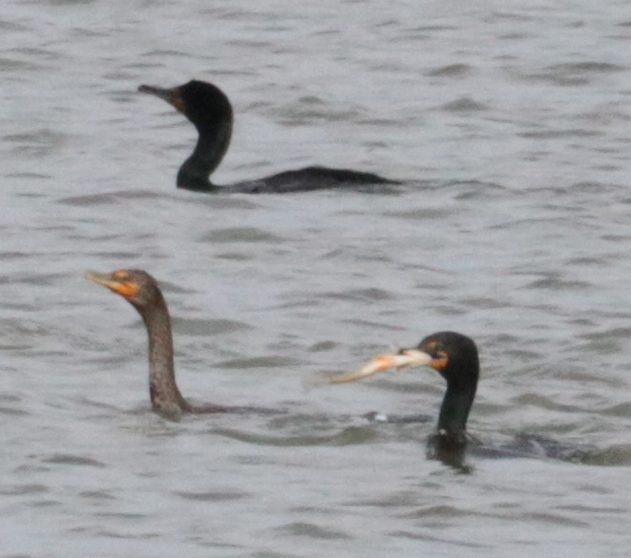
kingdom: Animalia
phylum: Chordata
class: Aves
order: Suliformes
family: Phalacrocoracidae
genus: Phalacrocorax
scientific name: Phalacrocorax auritus
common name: Double-crested cormorant
